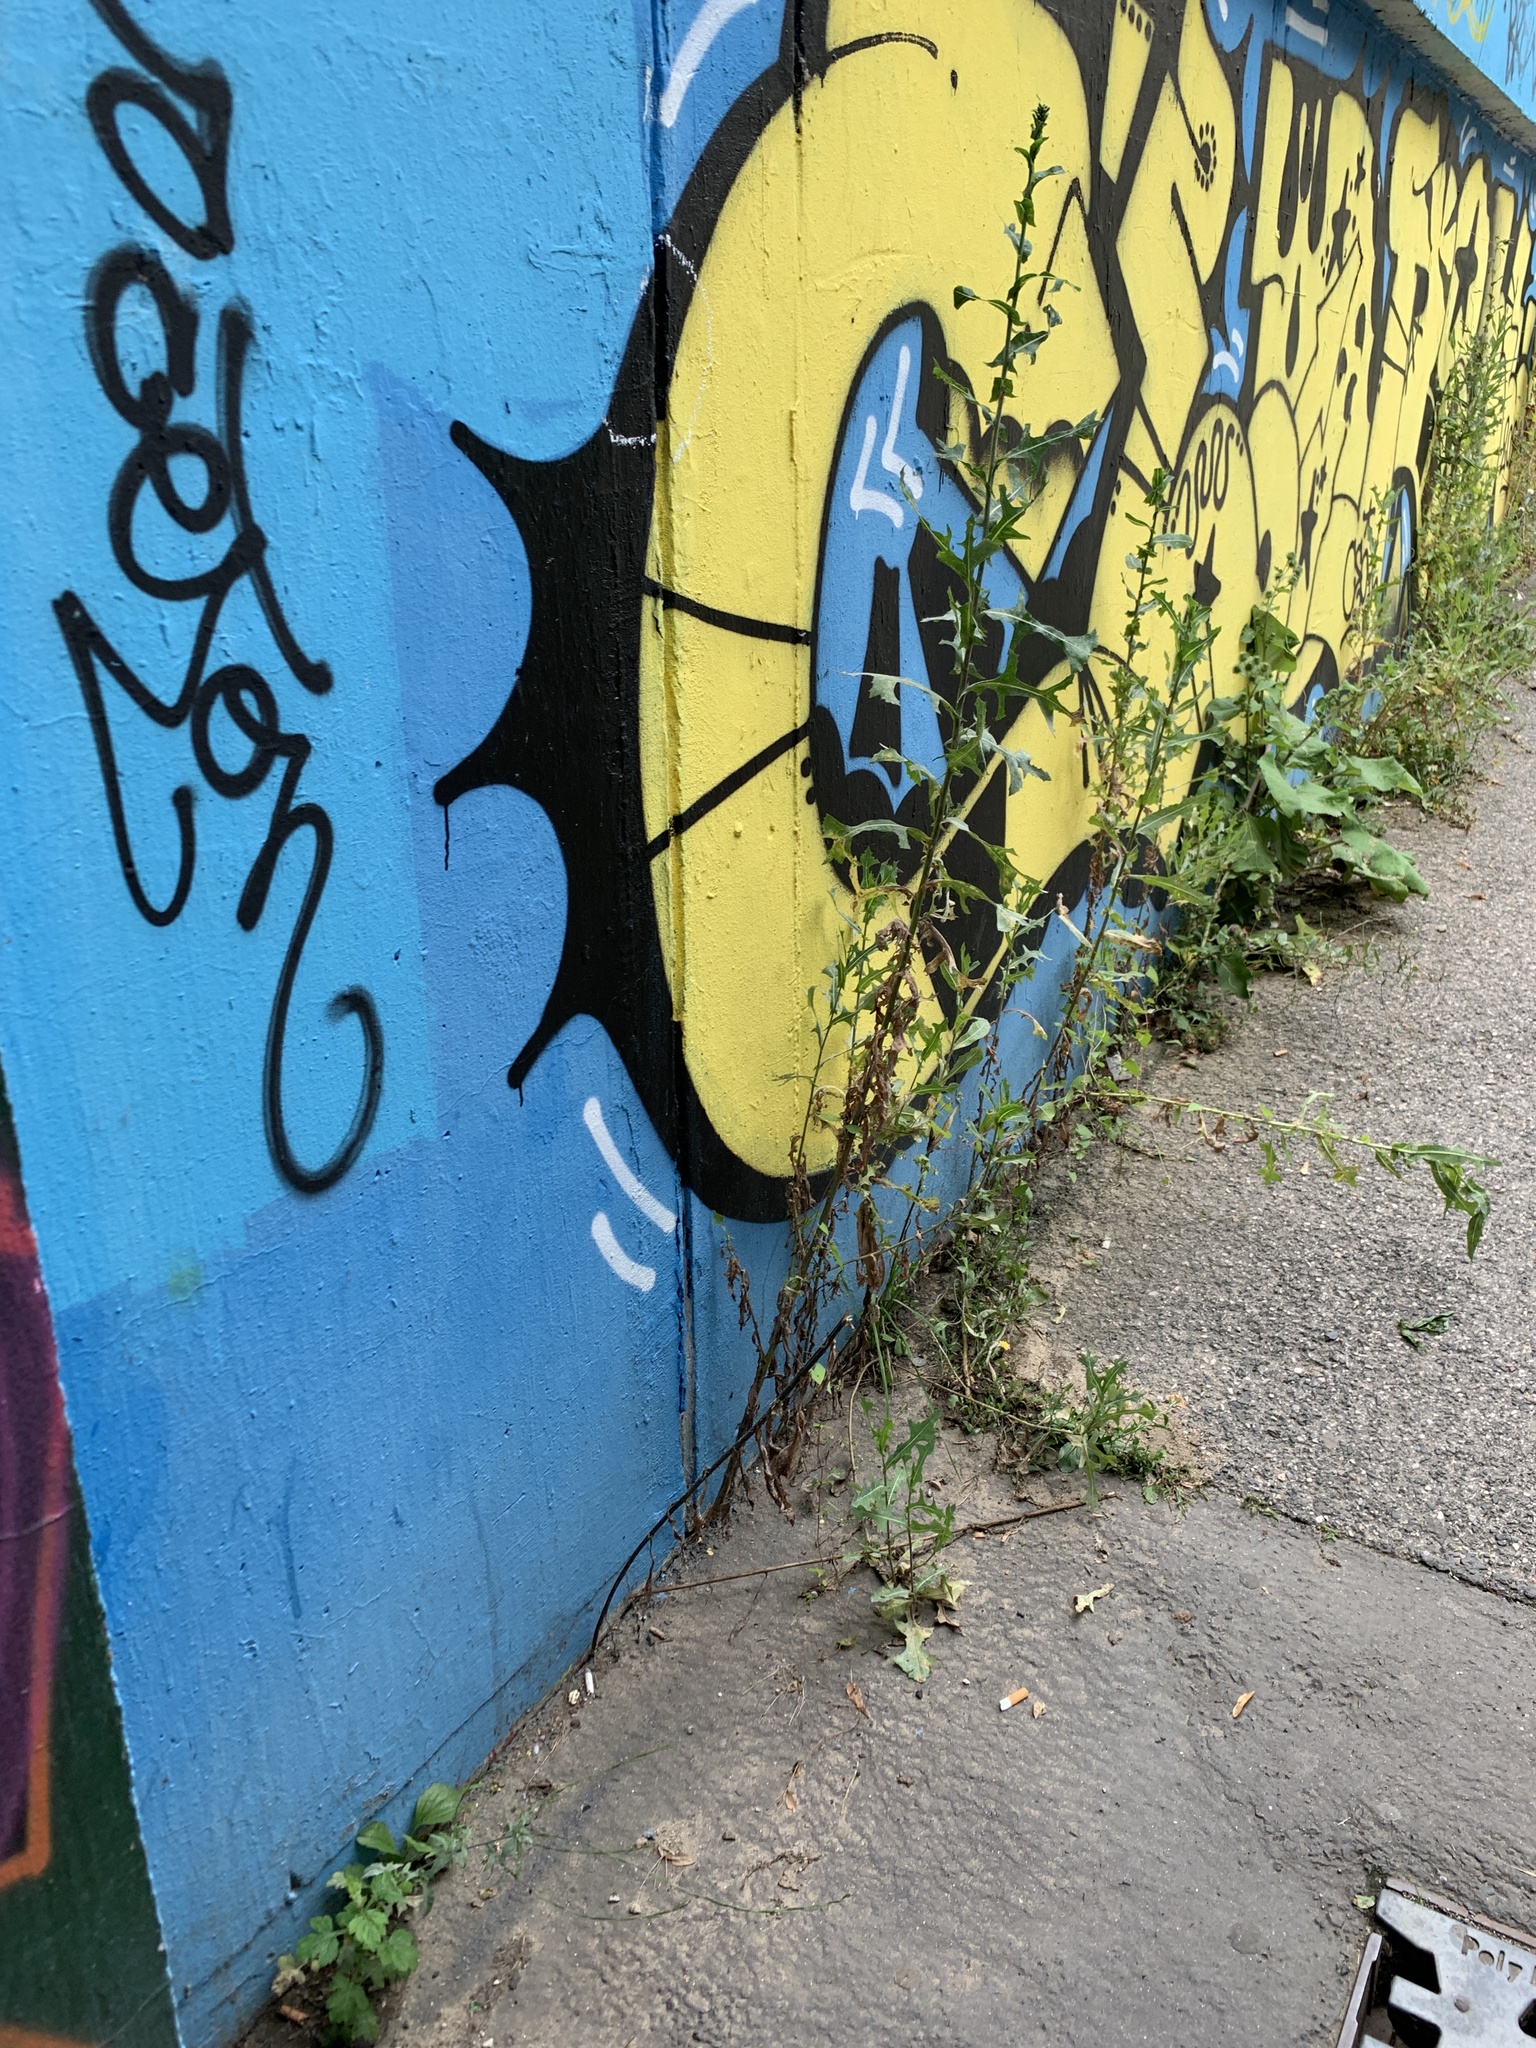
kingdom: Plantae
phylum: Tracheophyta
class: Magnoliopsida
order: Asterales
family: Asteraceae
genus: Lactuca
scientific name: Lactuca serriola
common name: Prickly lettuce
